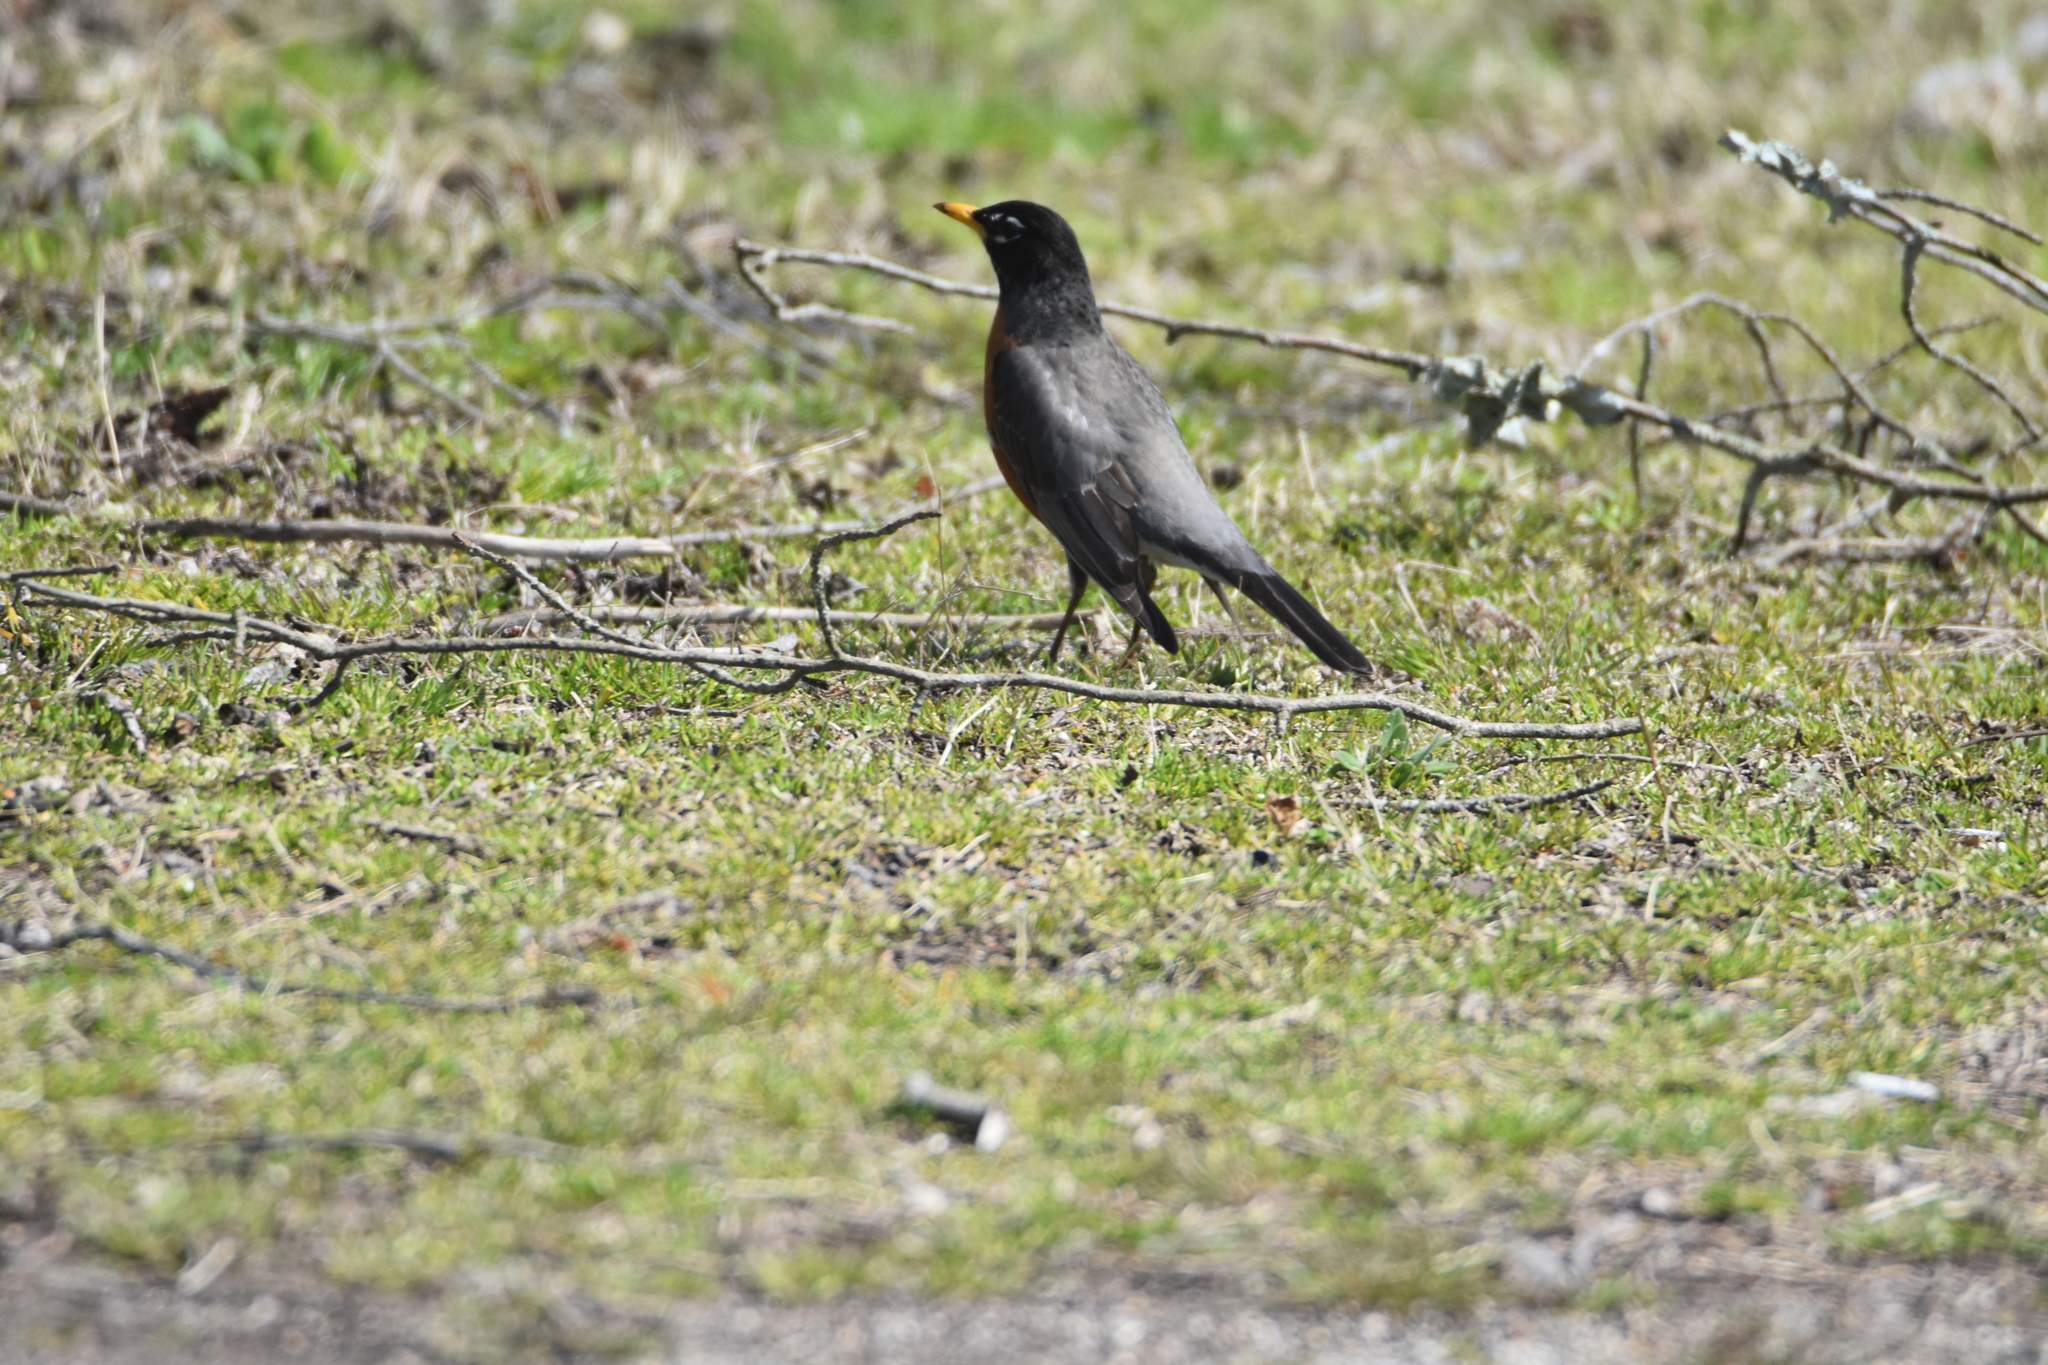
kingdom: Animalia
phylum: Chordata
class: Aves
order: Passeriformes
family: Turdidae
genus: Turdus
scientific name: Turdus migratorius
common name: American robin
